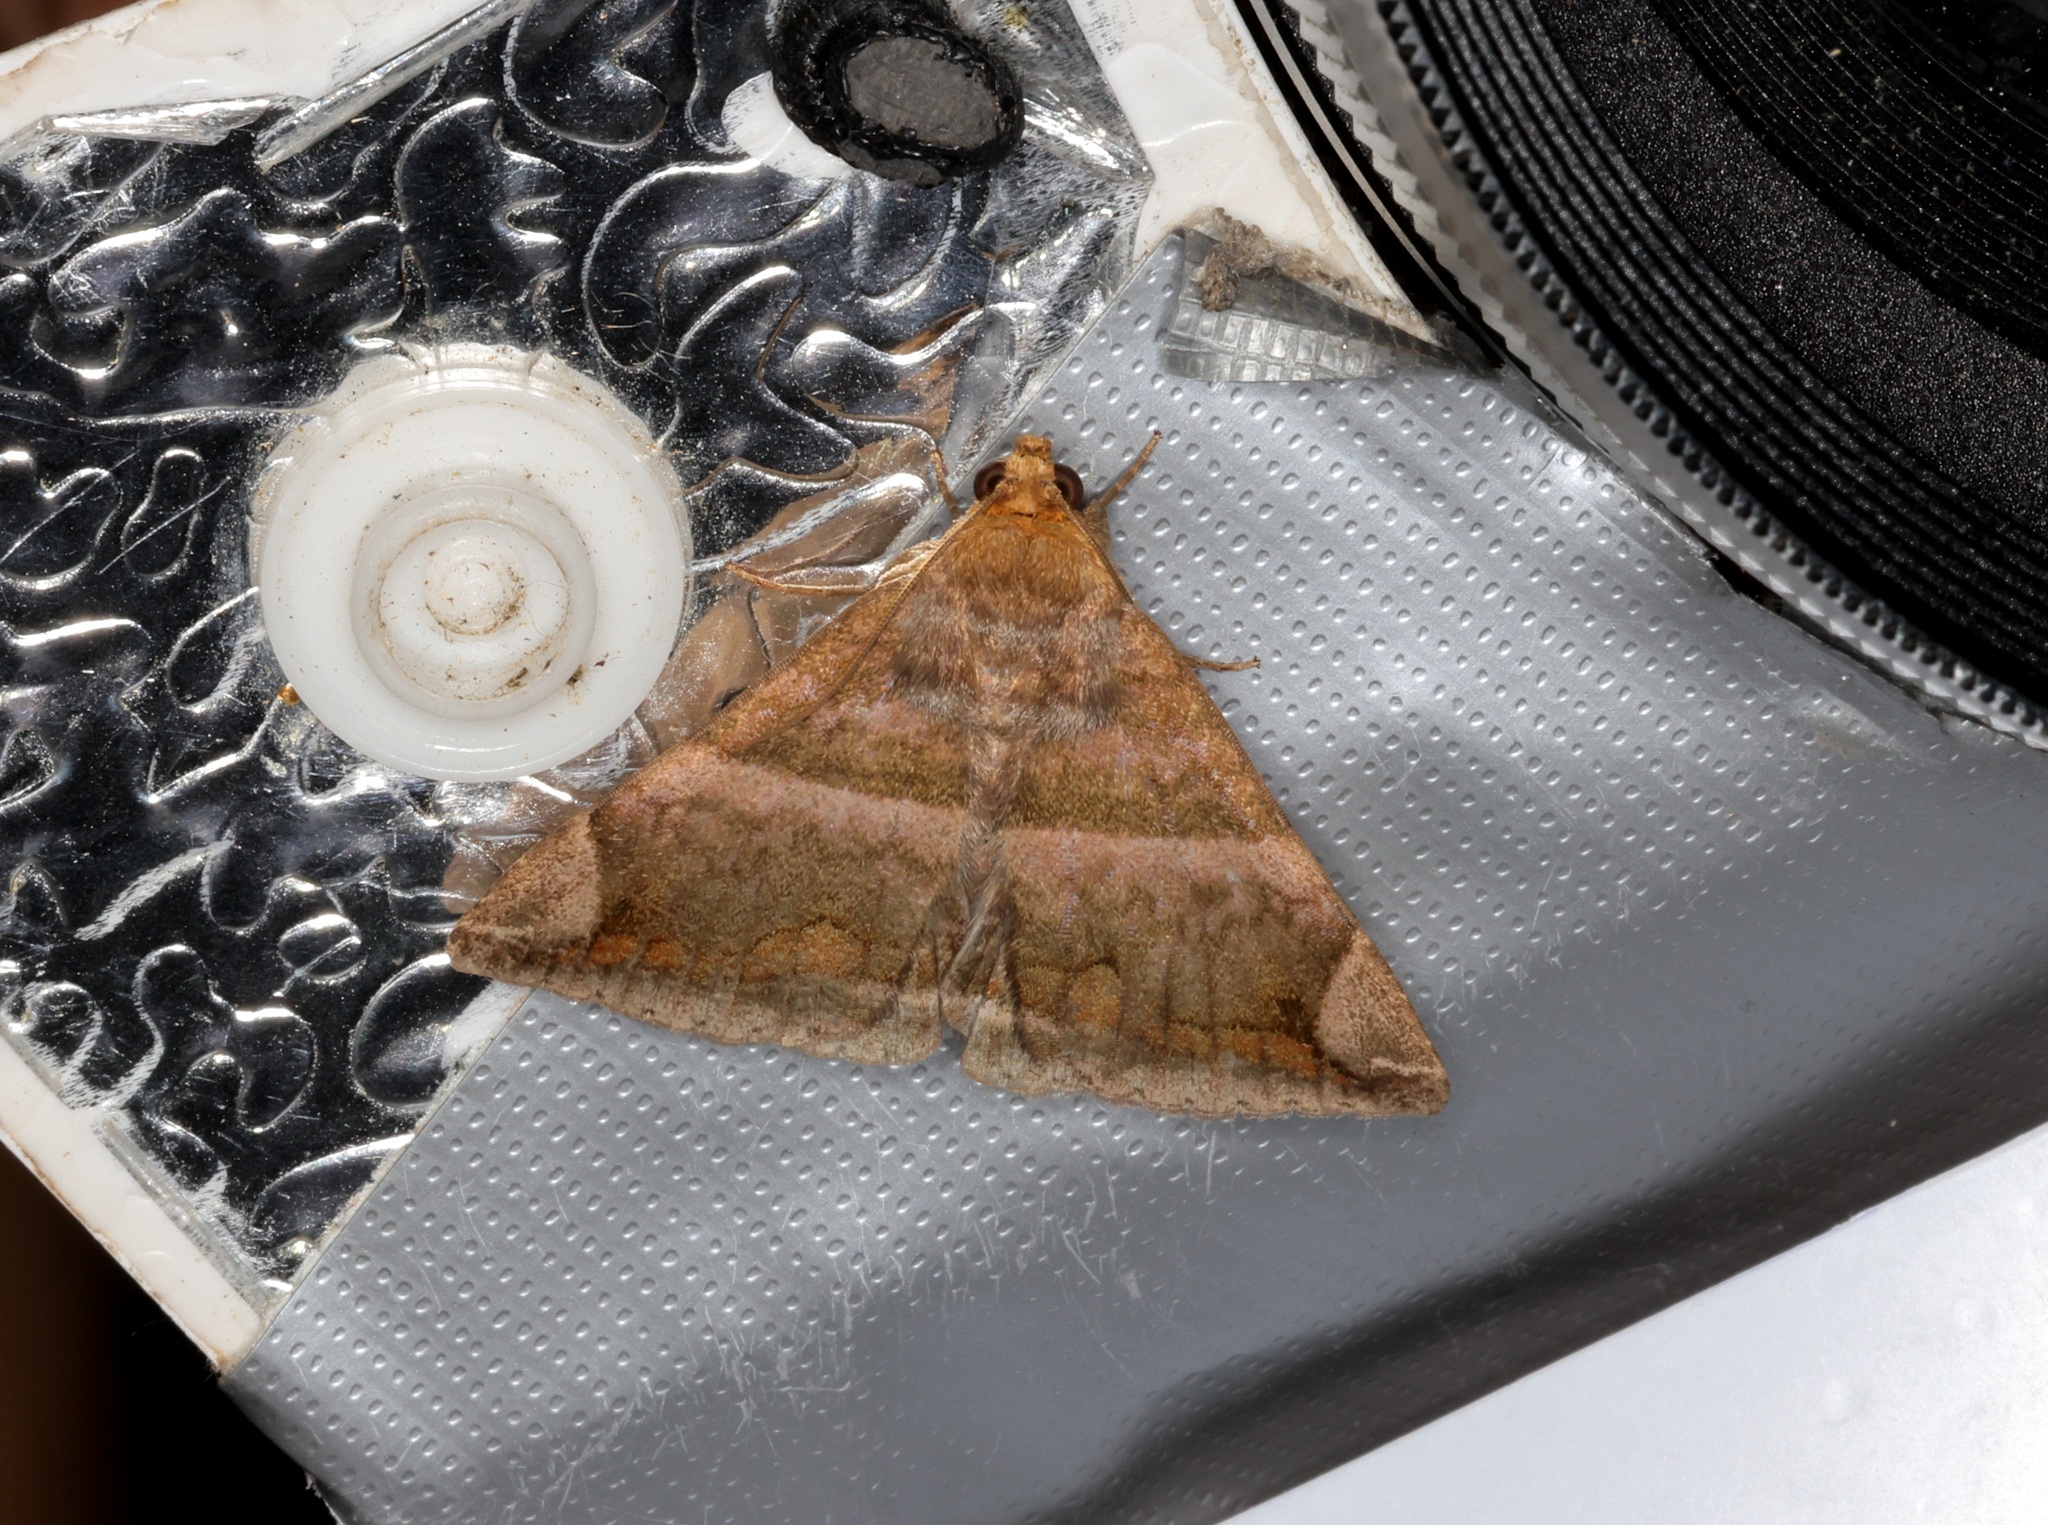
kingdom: Animalia
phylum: Arthropoda
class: Insecta
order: Lepidoptera
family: Erebidae
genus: Buzara
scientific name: Buzara onelia
